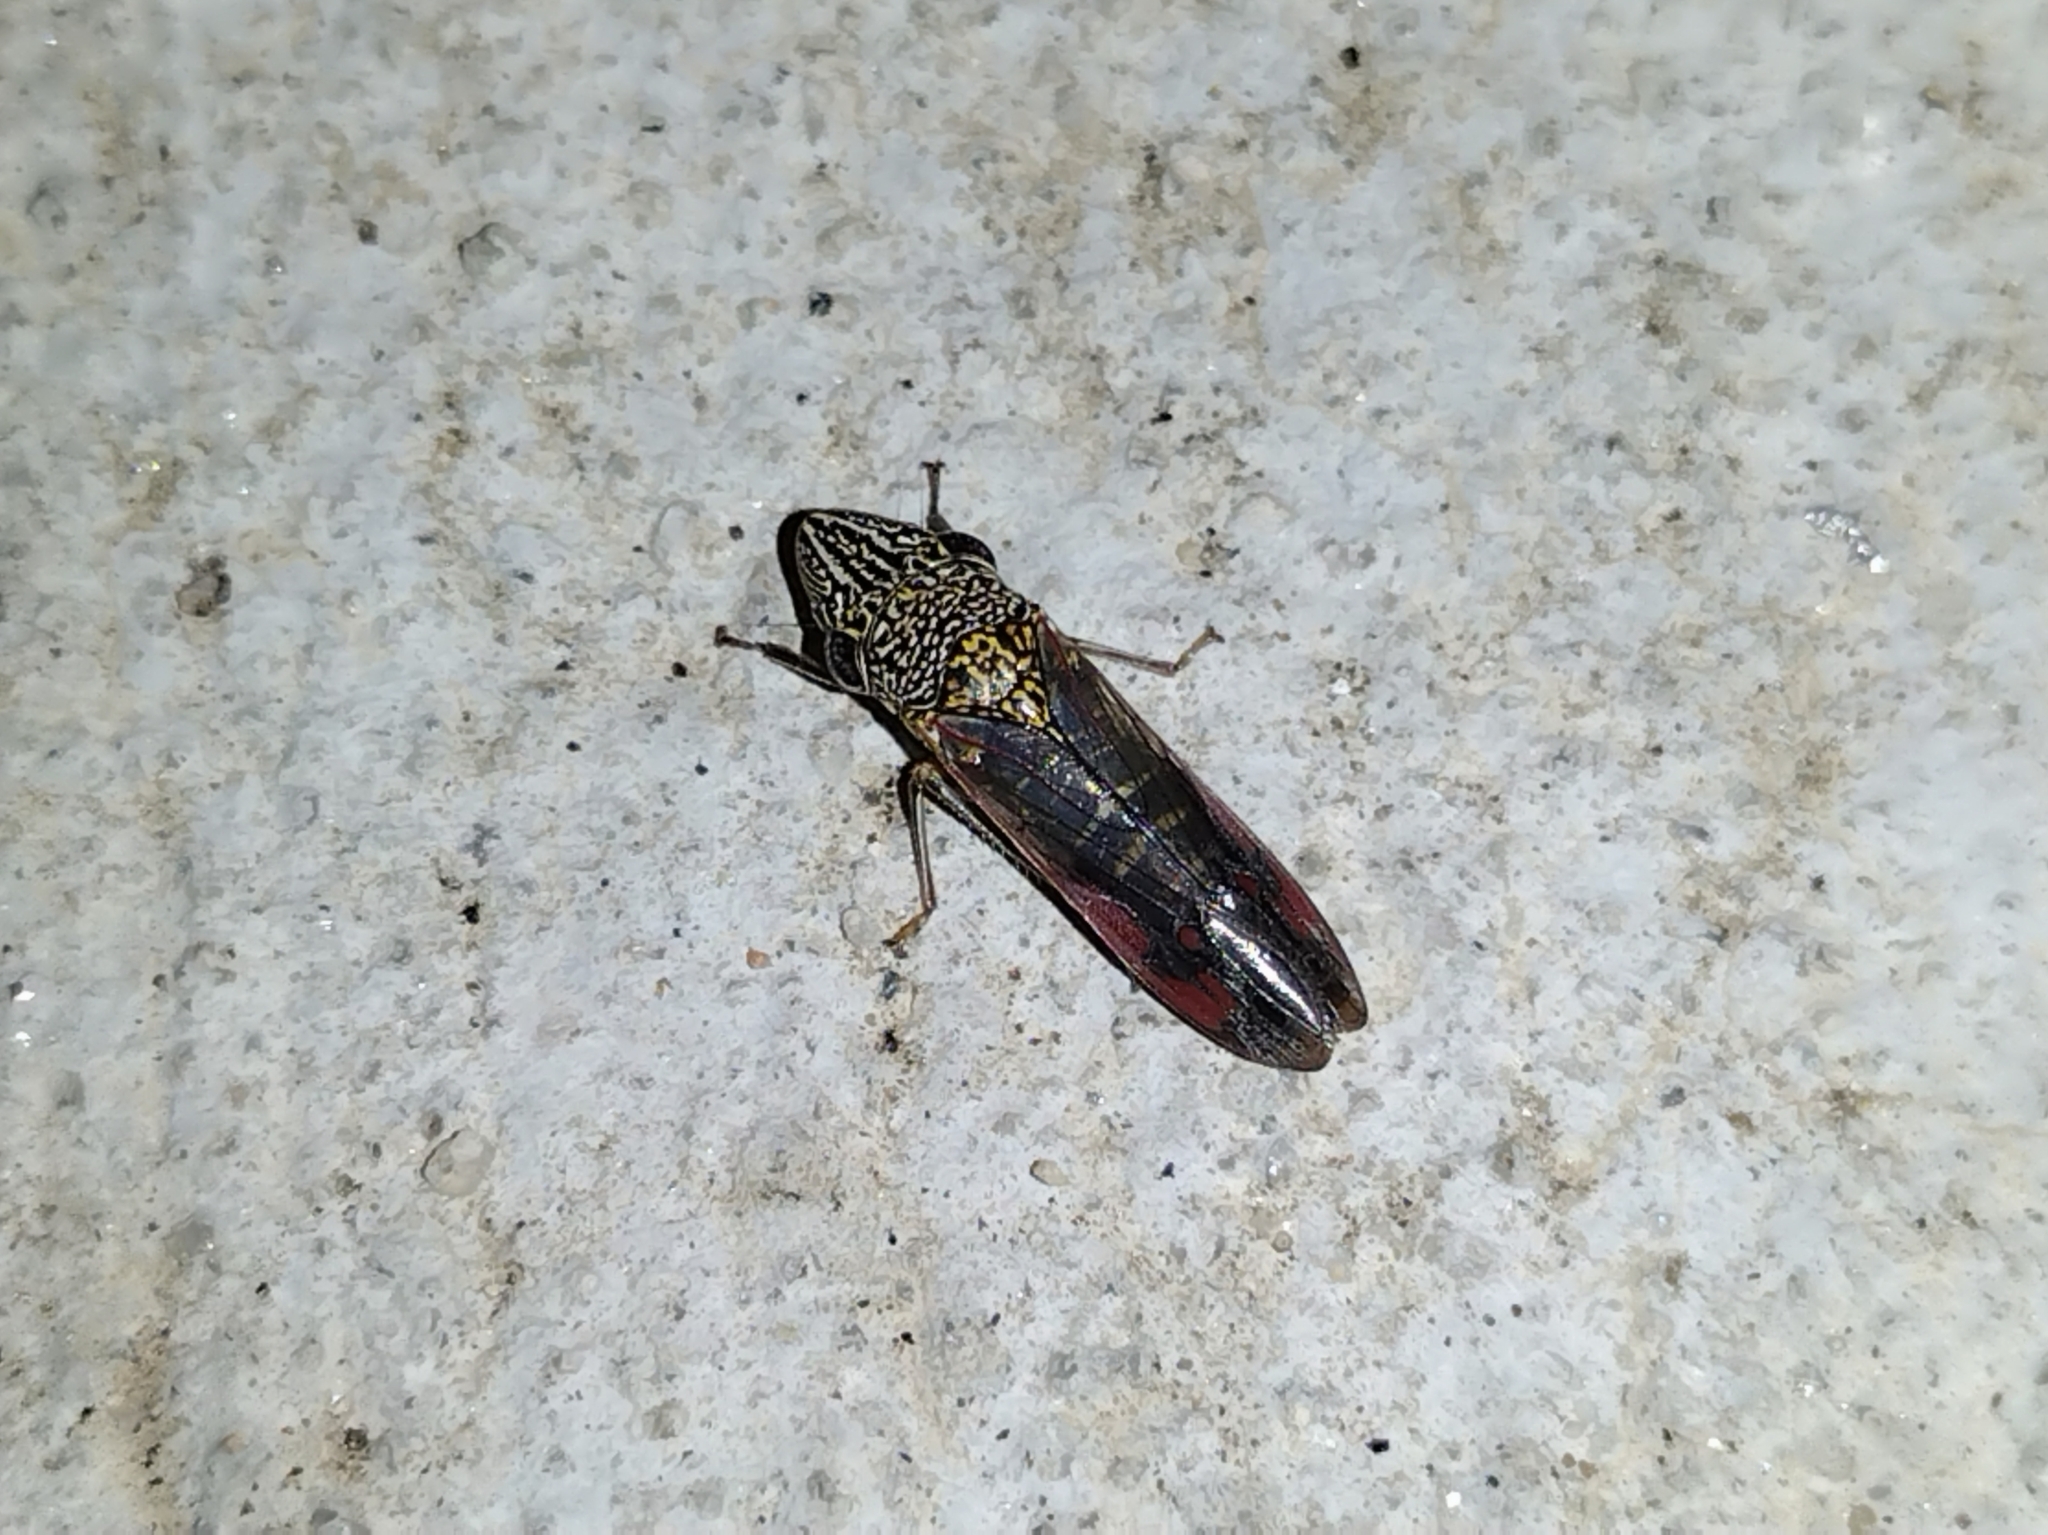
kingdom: Animalia
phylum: Arthropoda
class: Insecta
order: Hemiptera
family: Cicadellidae
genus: Homalodisca
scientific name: Homalodisca liturata
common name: Lacertate sharpshooter
